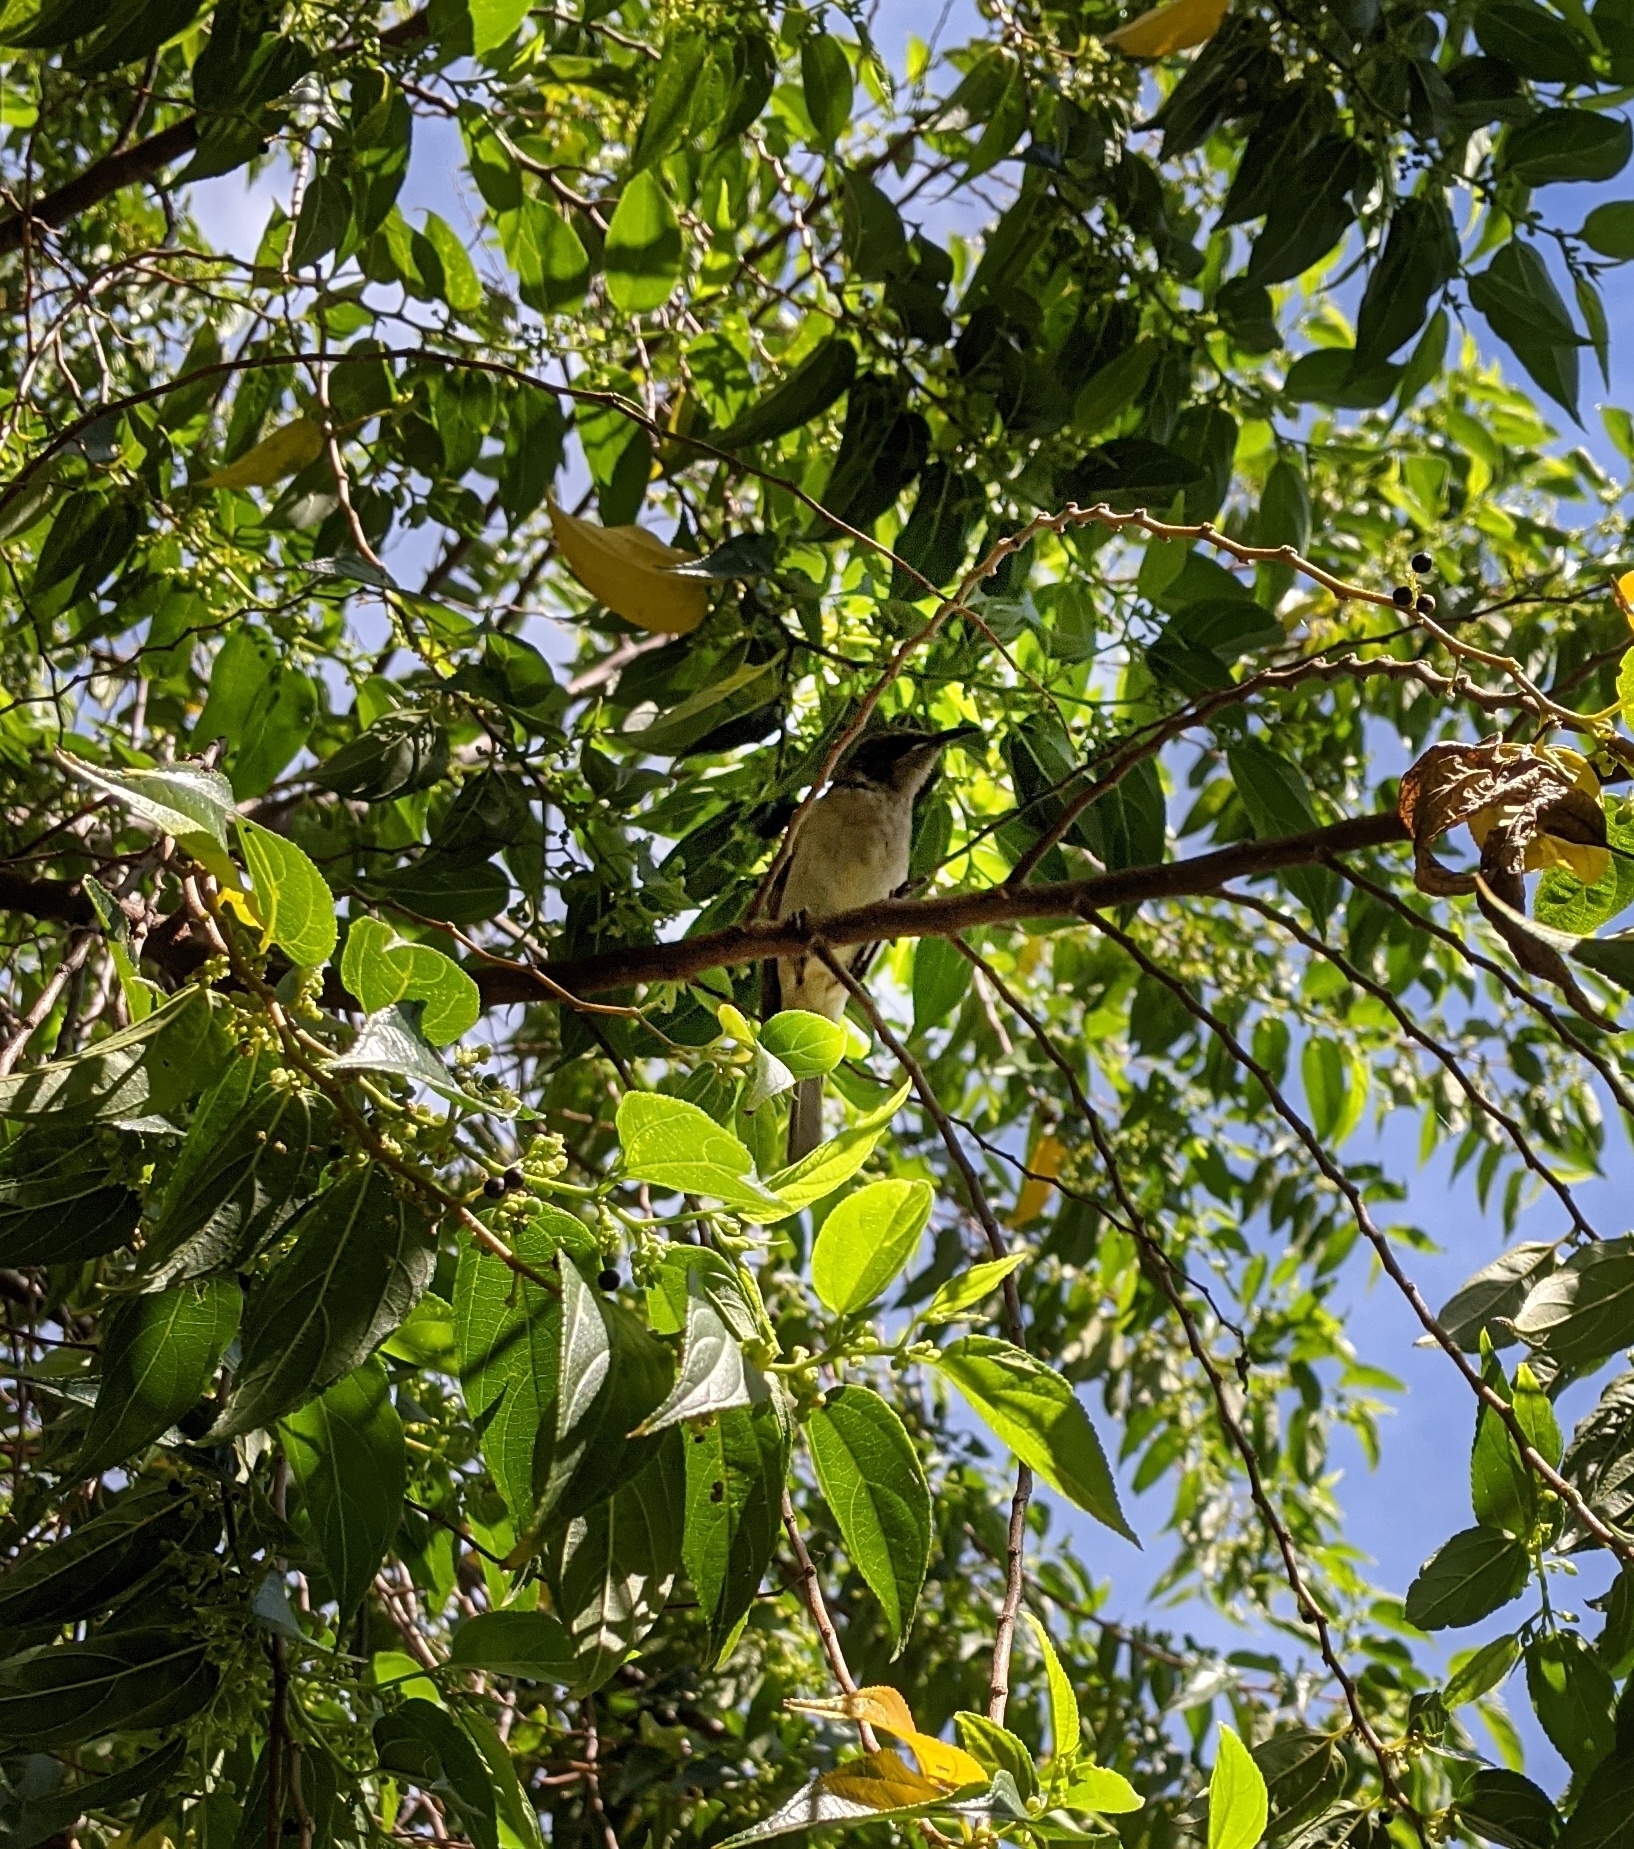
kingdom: Animalia
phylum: Chordata
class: Aves
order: Passeriformes
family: Meliphagidae
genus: Lichmera
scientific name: Lichmera indistincta
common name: Brown honeyeater
